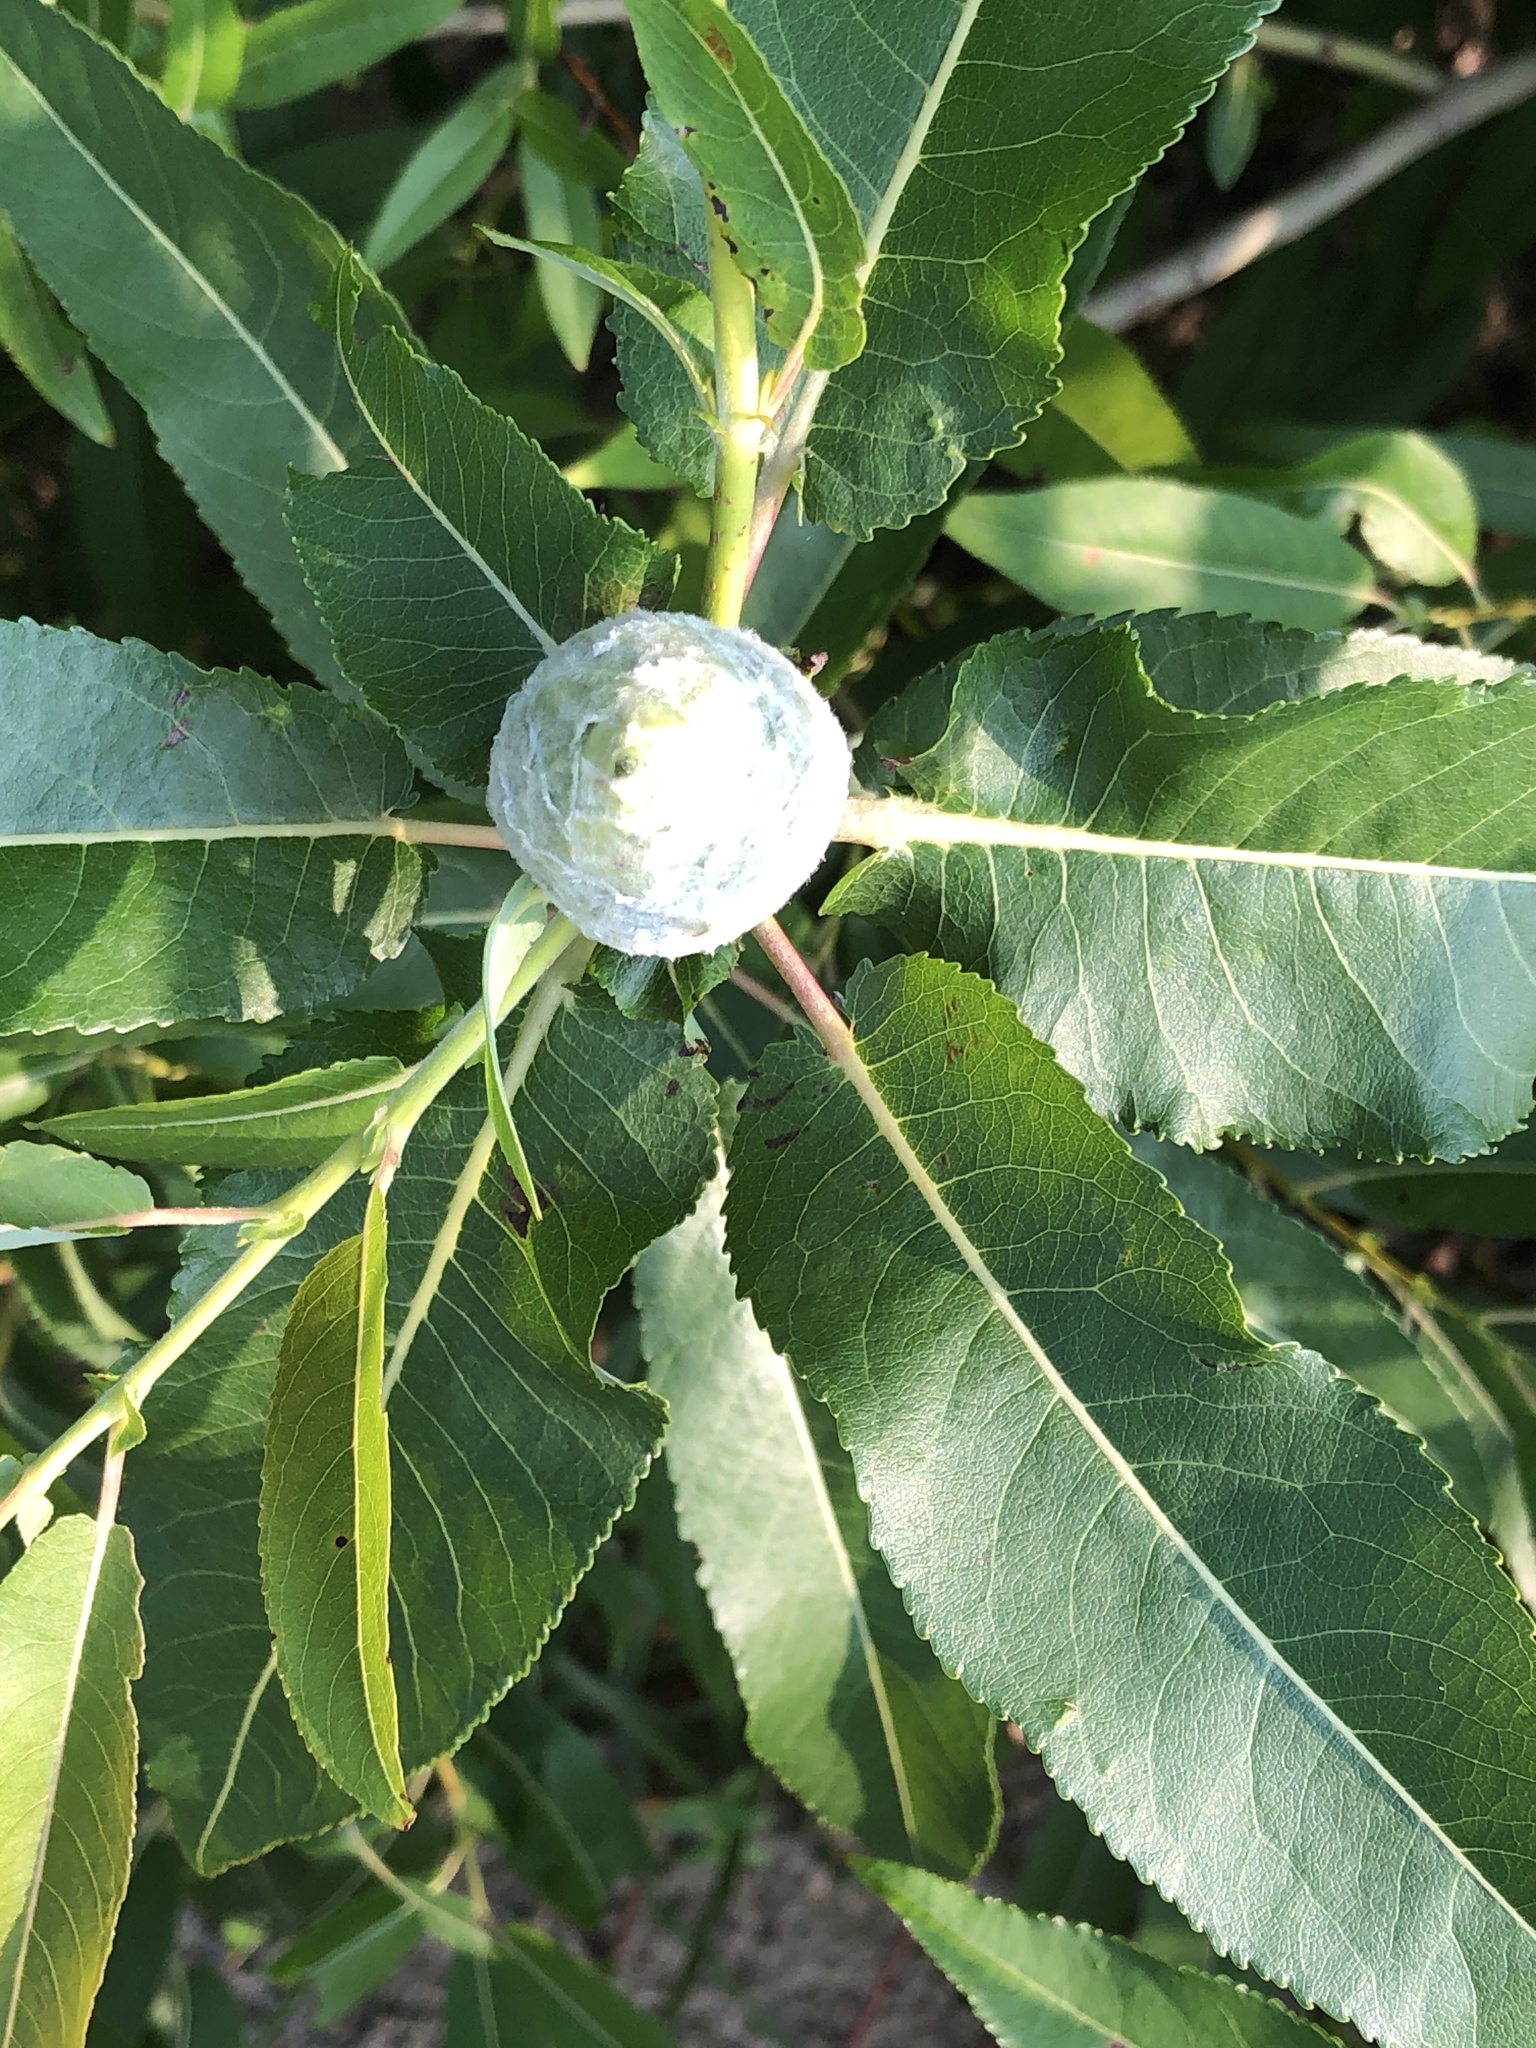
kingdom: Animalia
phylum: Arthropoda
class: Insecta
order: Diptera
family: Cecidomyiidae
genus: Rabdophaga
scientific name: Rabdophaga strobiloides
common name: Willow pinecone gall midge
